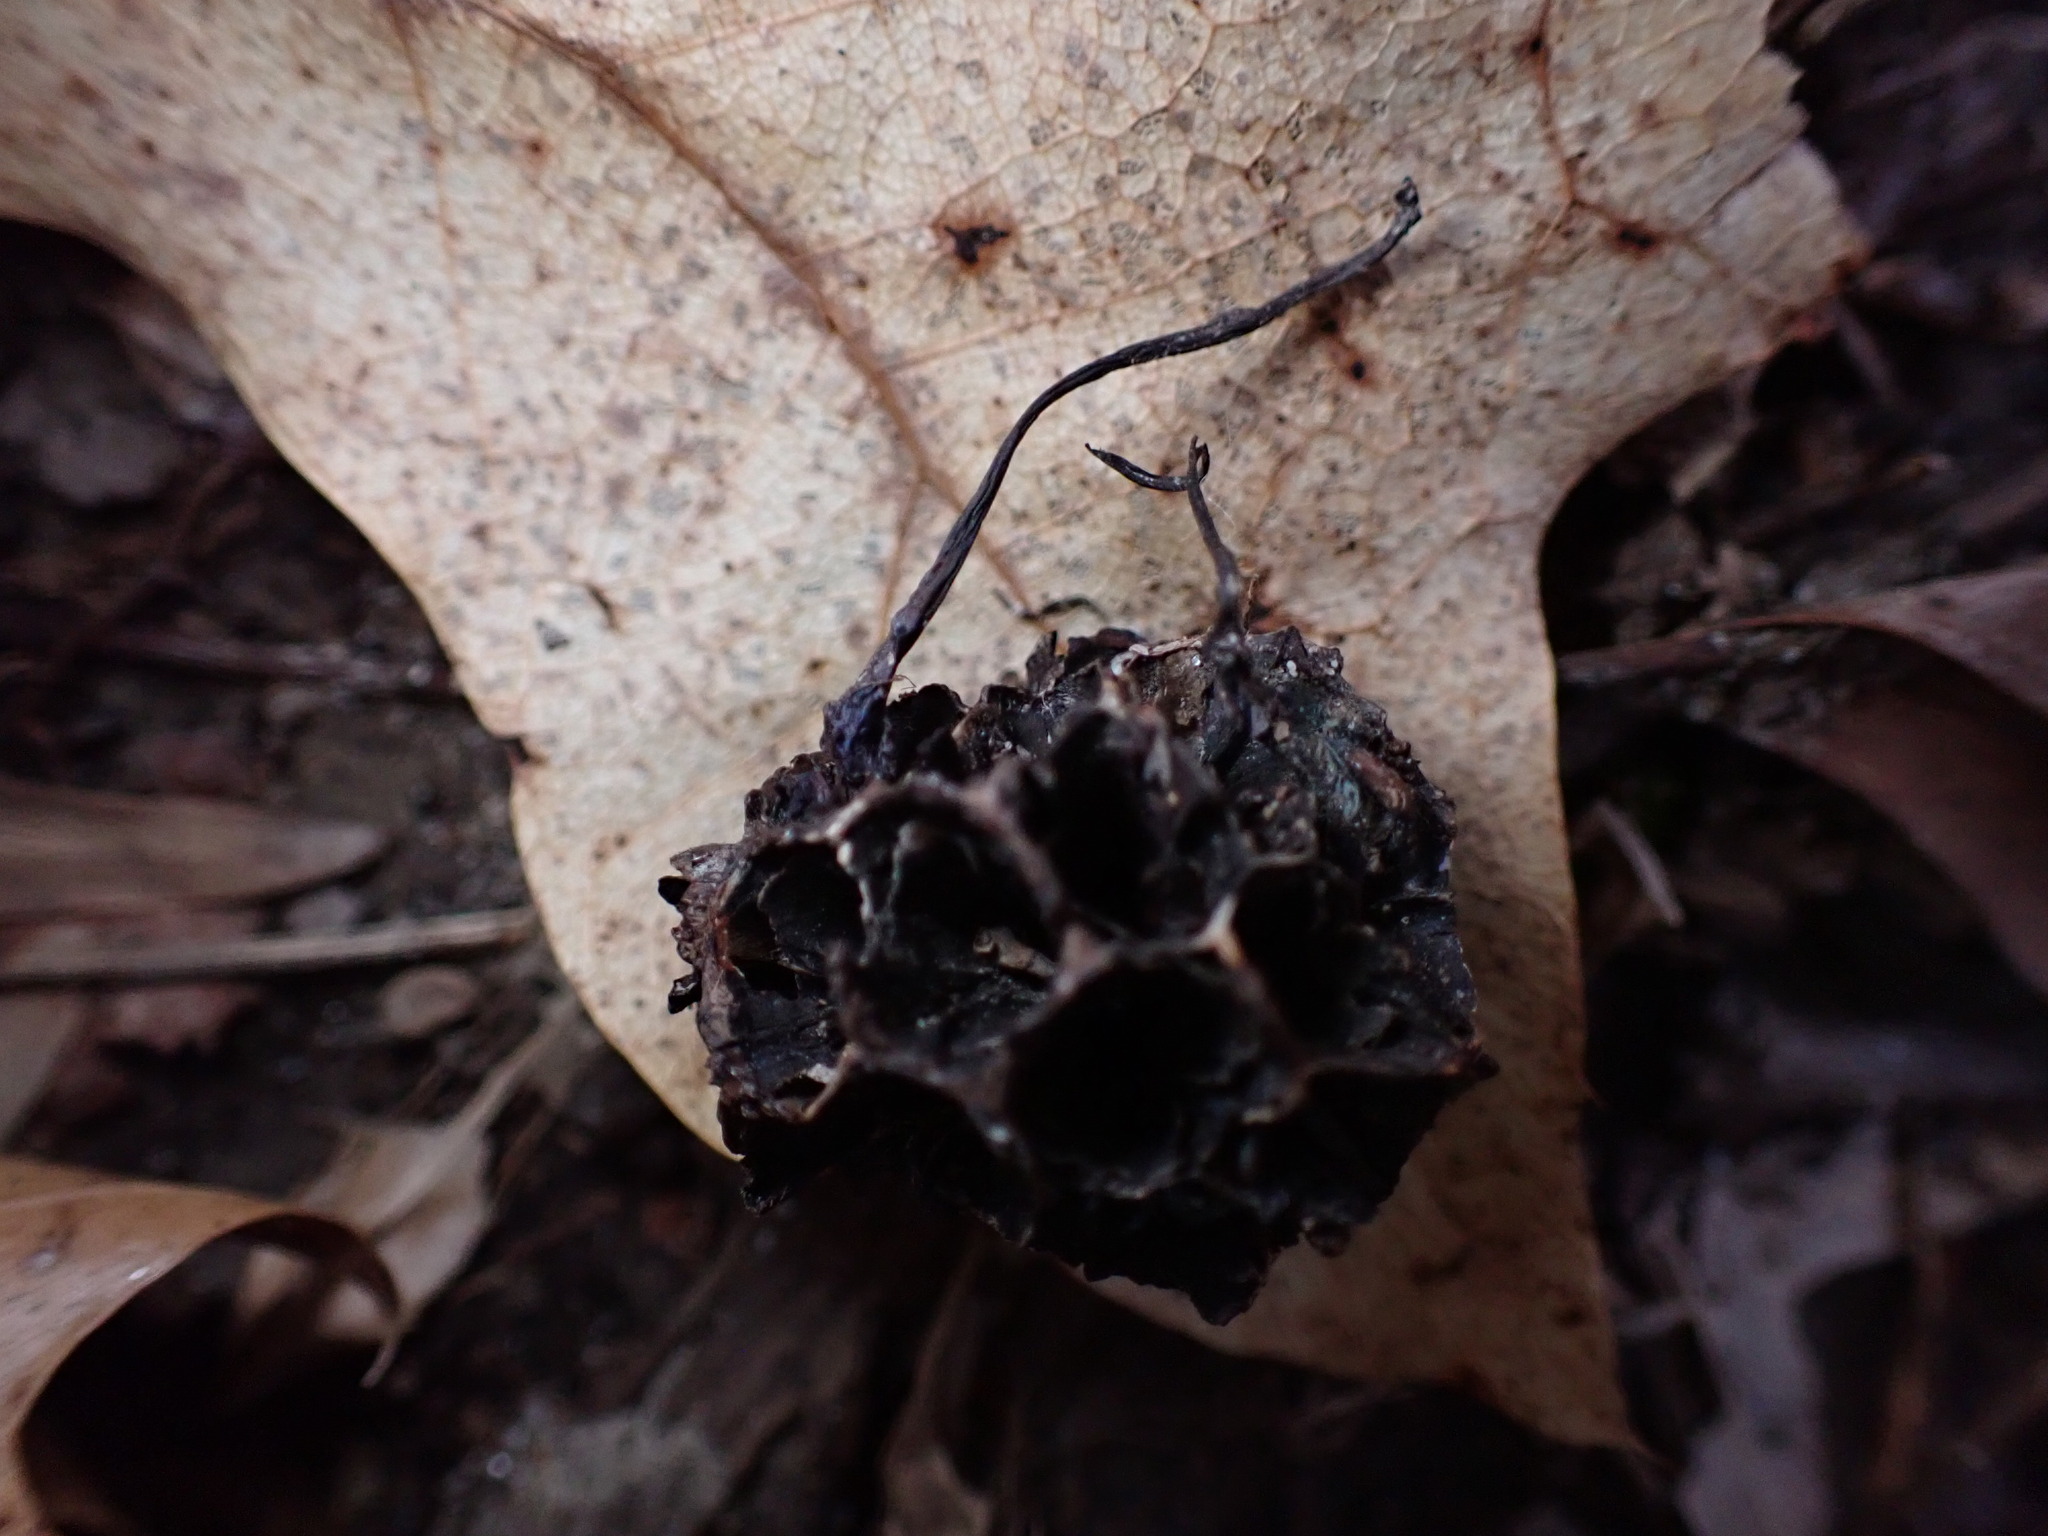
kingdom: Fungi
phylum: Ascomycota
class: Sordariomycetes
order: Xylariales
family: Xylariaceae
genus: Xylaria
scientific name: Xylaria liquidambaris
